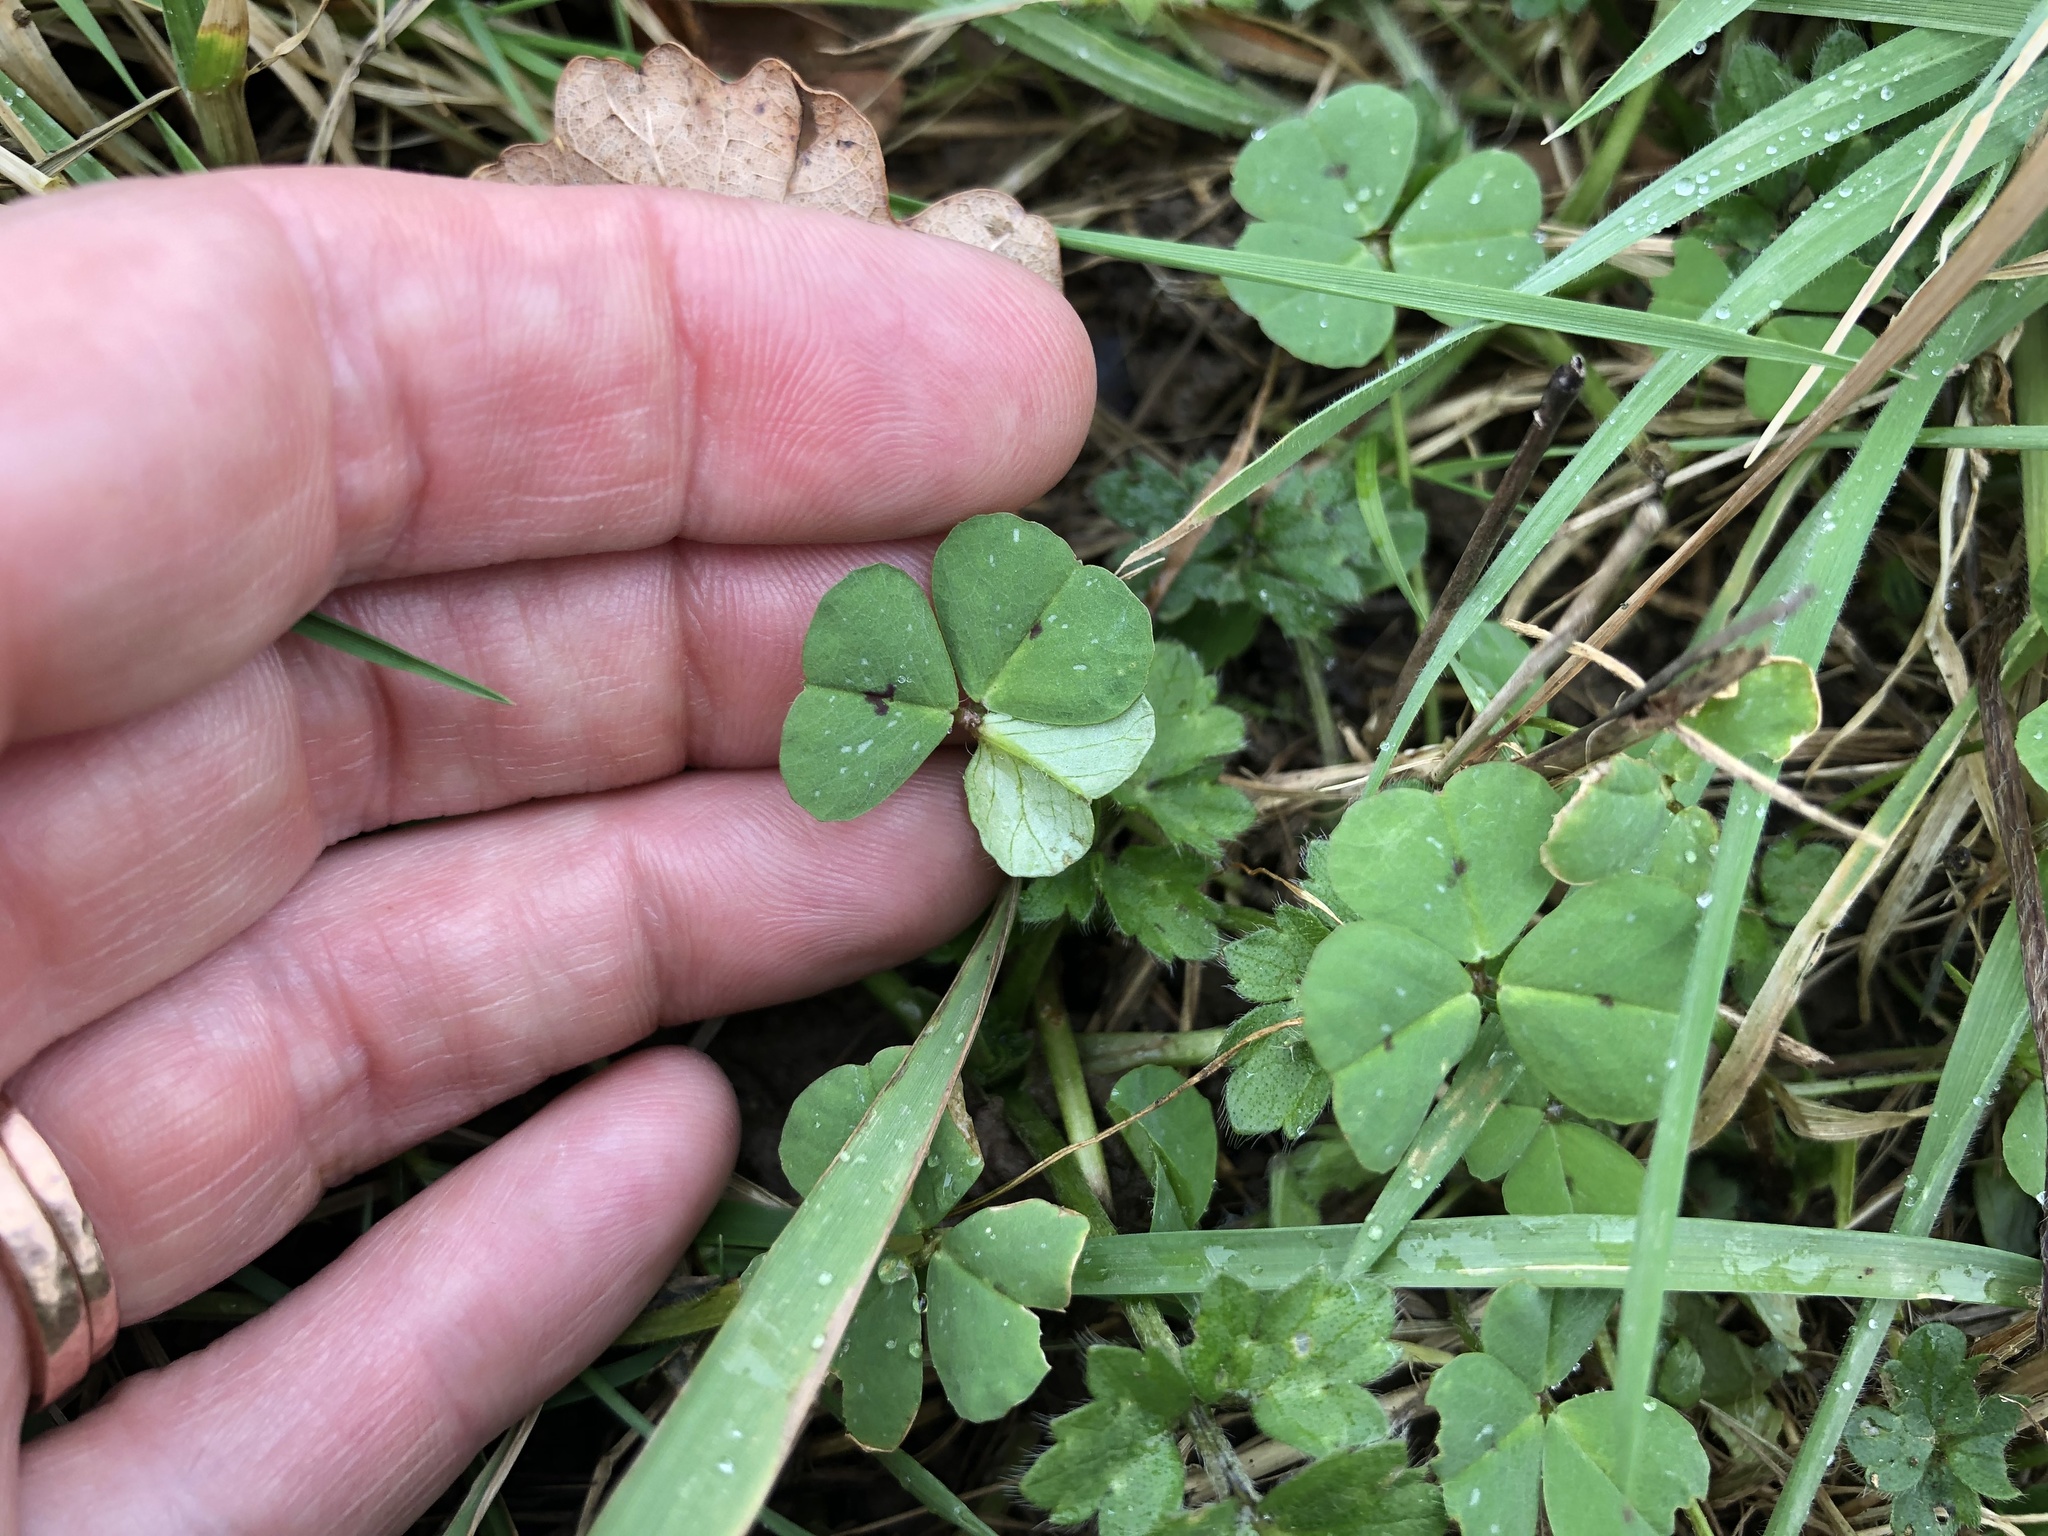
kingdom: Plantae
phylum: Tracheophyta
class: Magnoliopsida
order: Fabales
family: Fabaceae
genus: Medicago
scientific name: Medicago arabica
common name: Spotted medick
